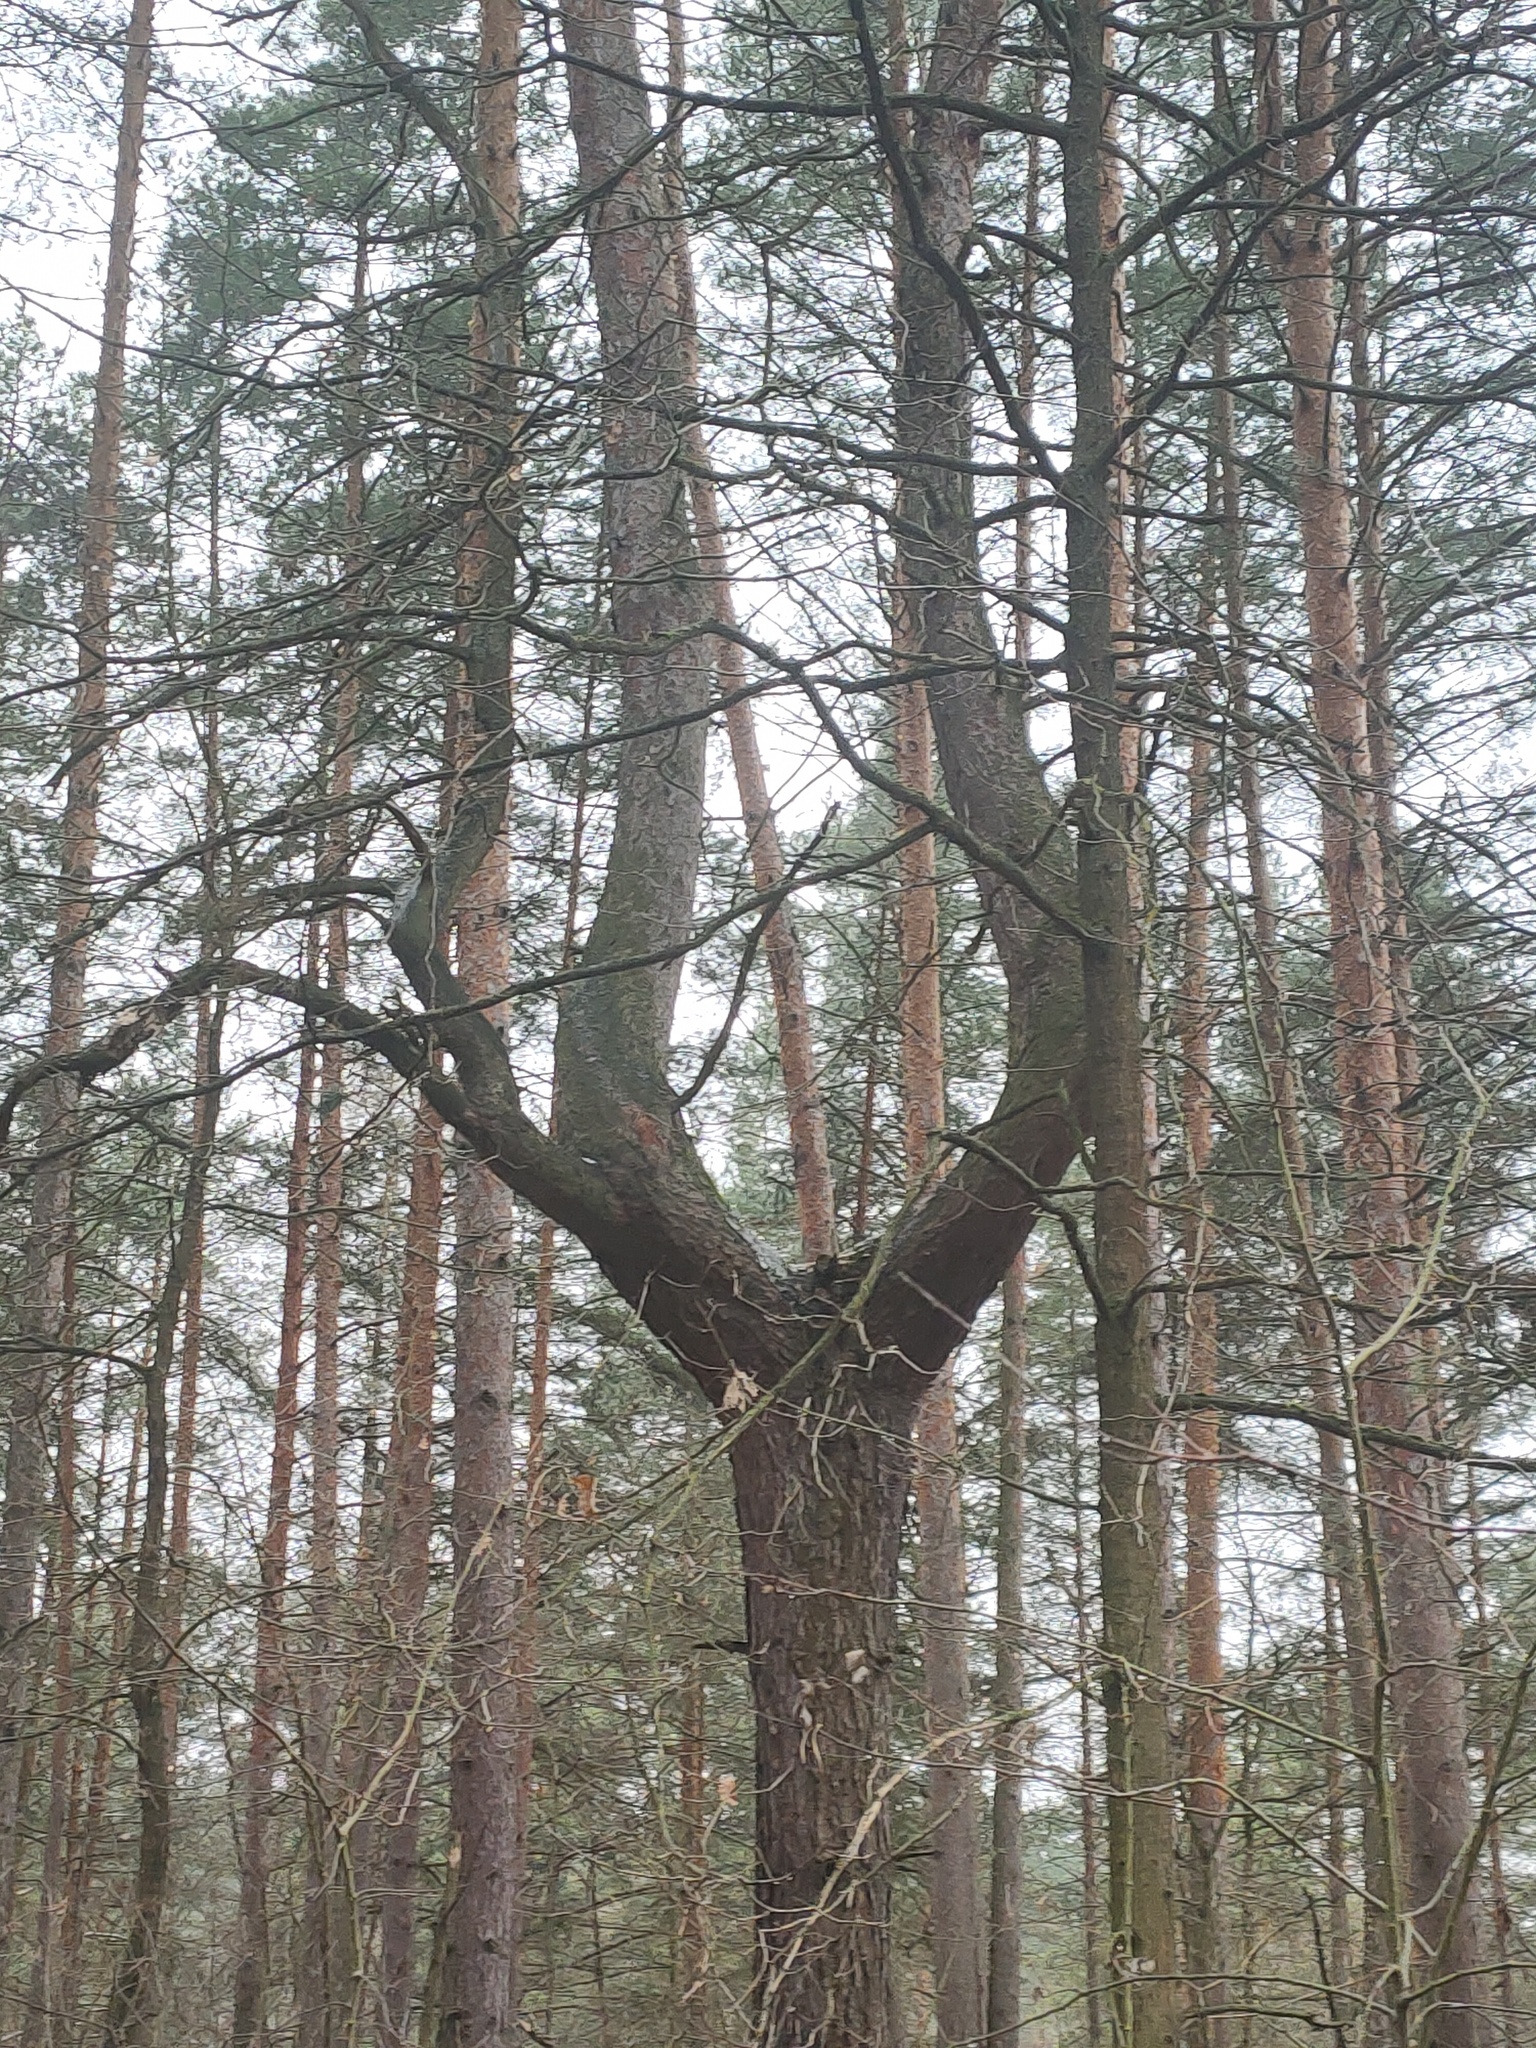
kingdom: Plantae
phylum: Tracheophyta
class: Pinopsida
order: Pinales
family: Pinaceae
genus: Pinus
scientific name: Pinus sylvestris
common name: Scots pine
